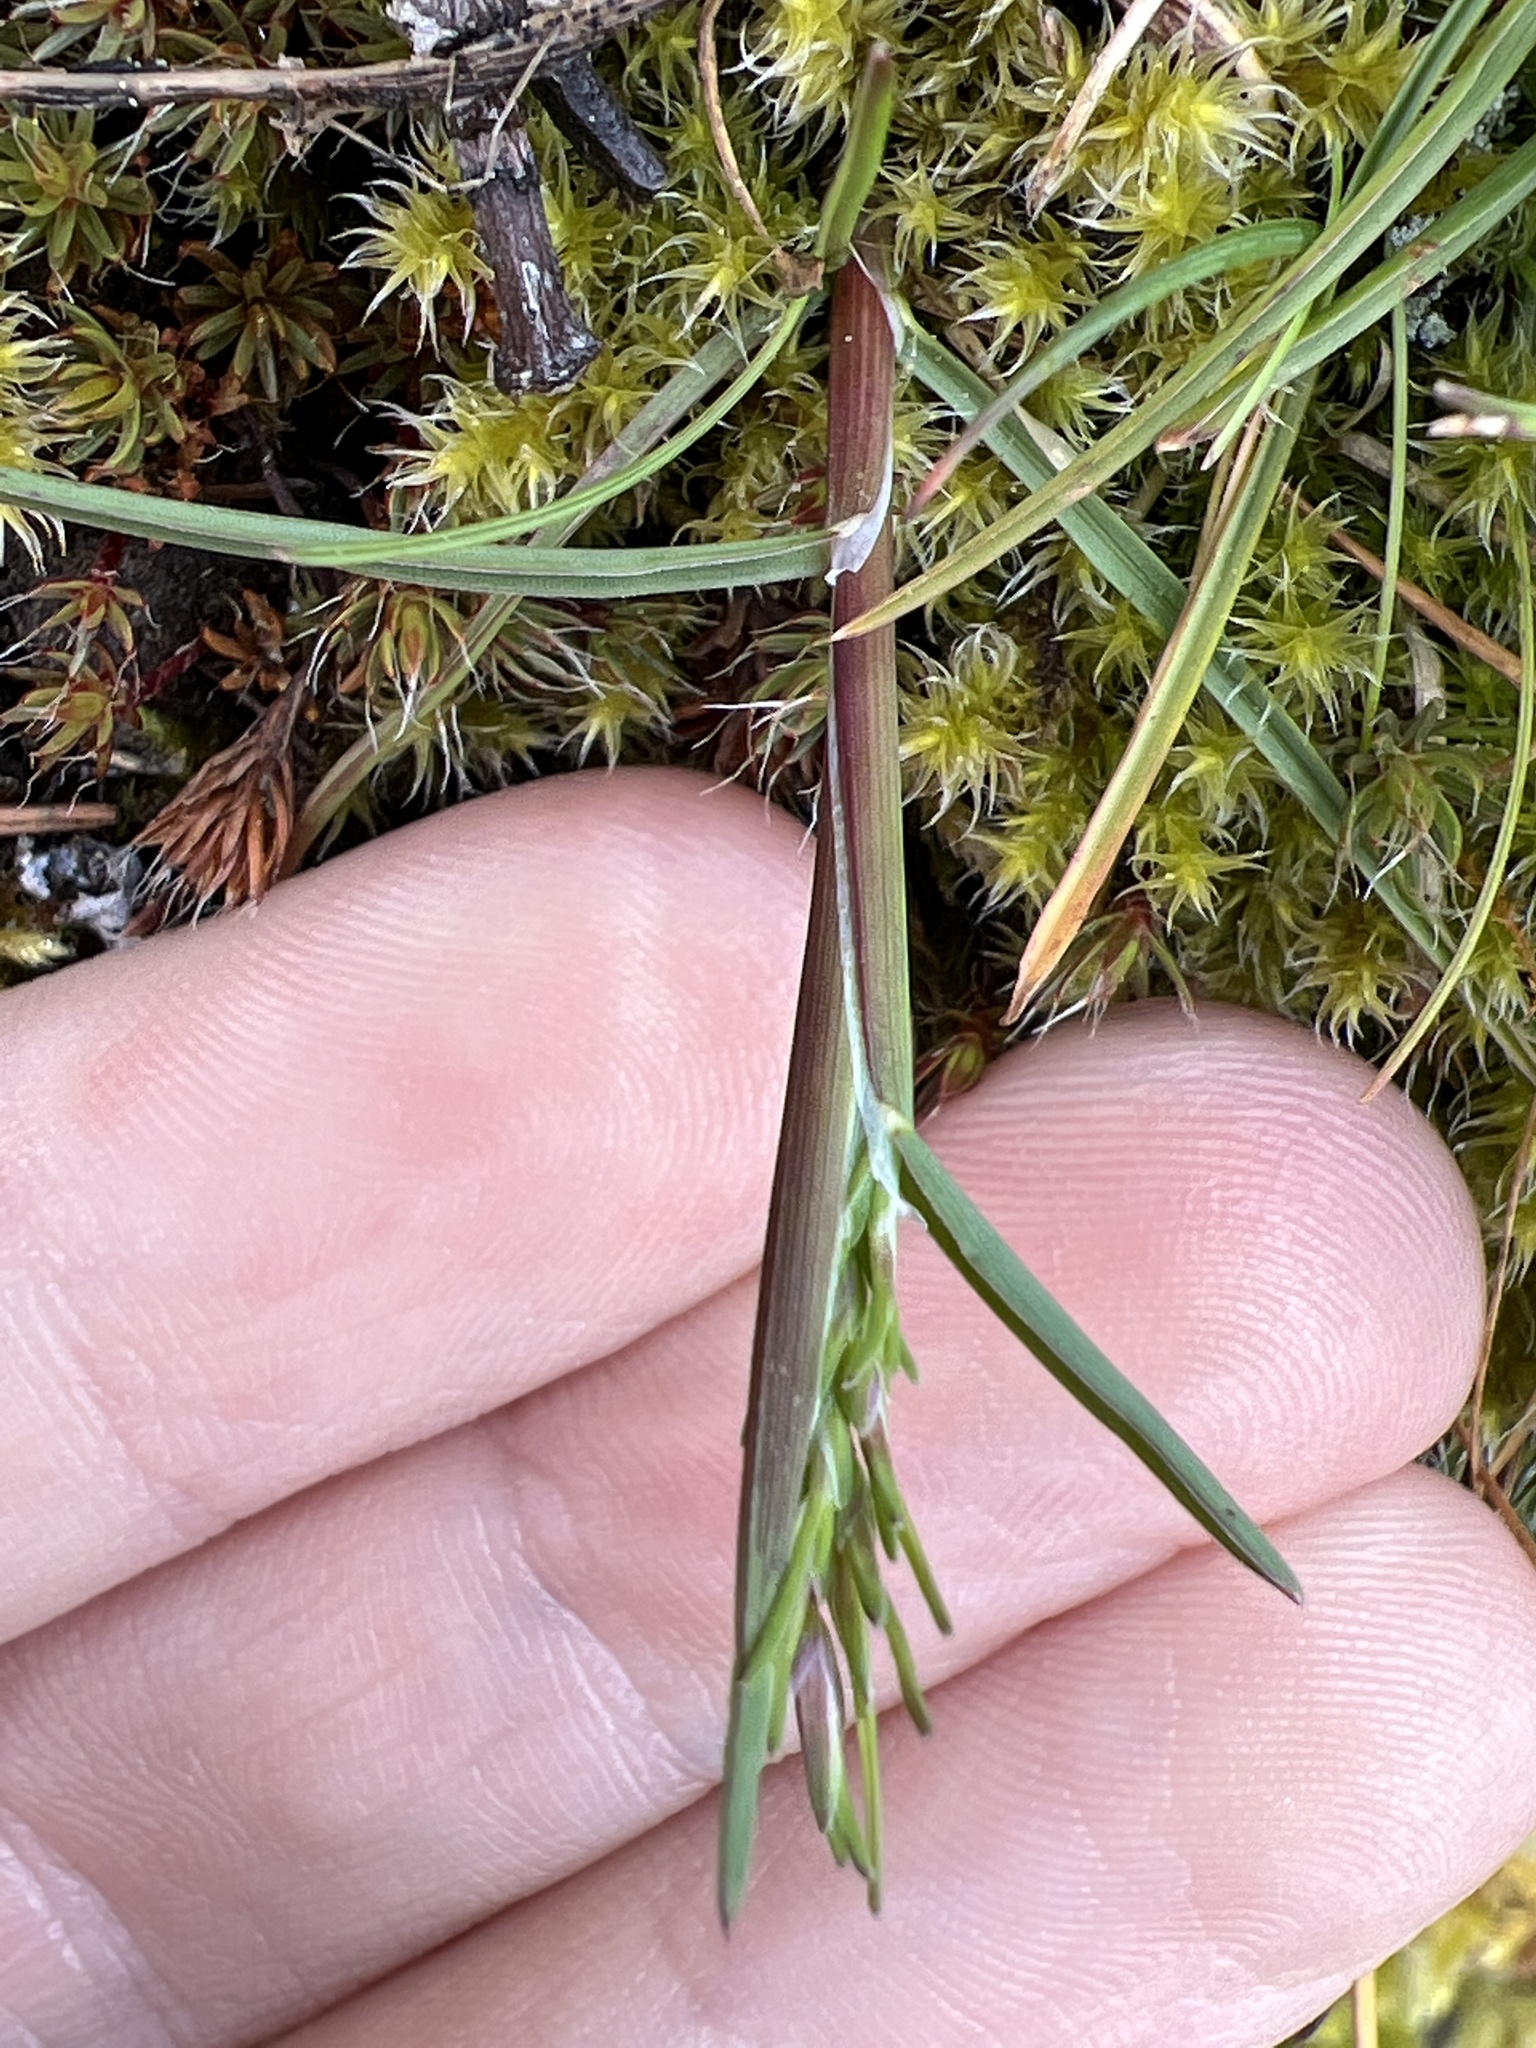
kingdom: Plantae
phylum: Tracheophyta
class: Liliopsida
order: Poales
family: Poaceae
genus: Poa
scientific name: Poa bulbosa
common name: Bulbous bluegrass
